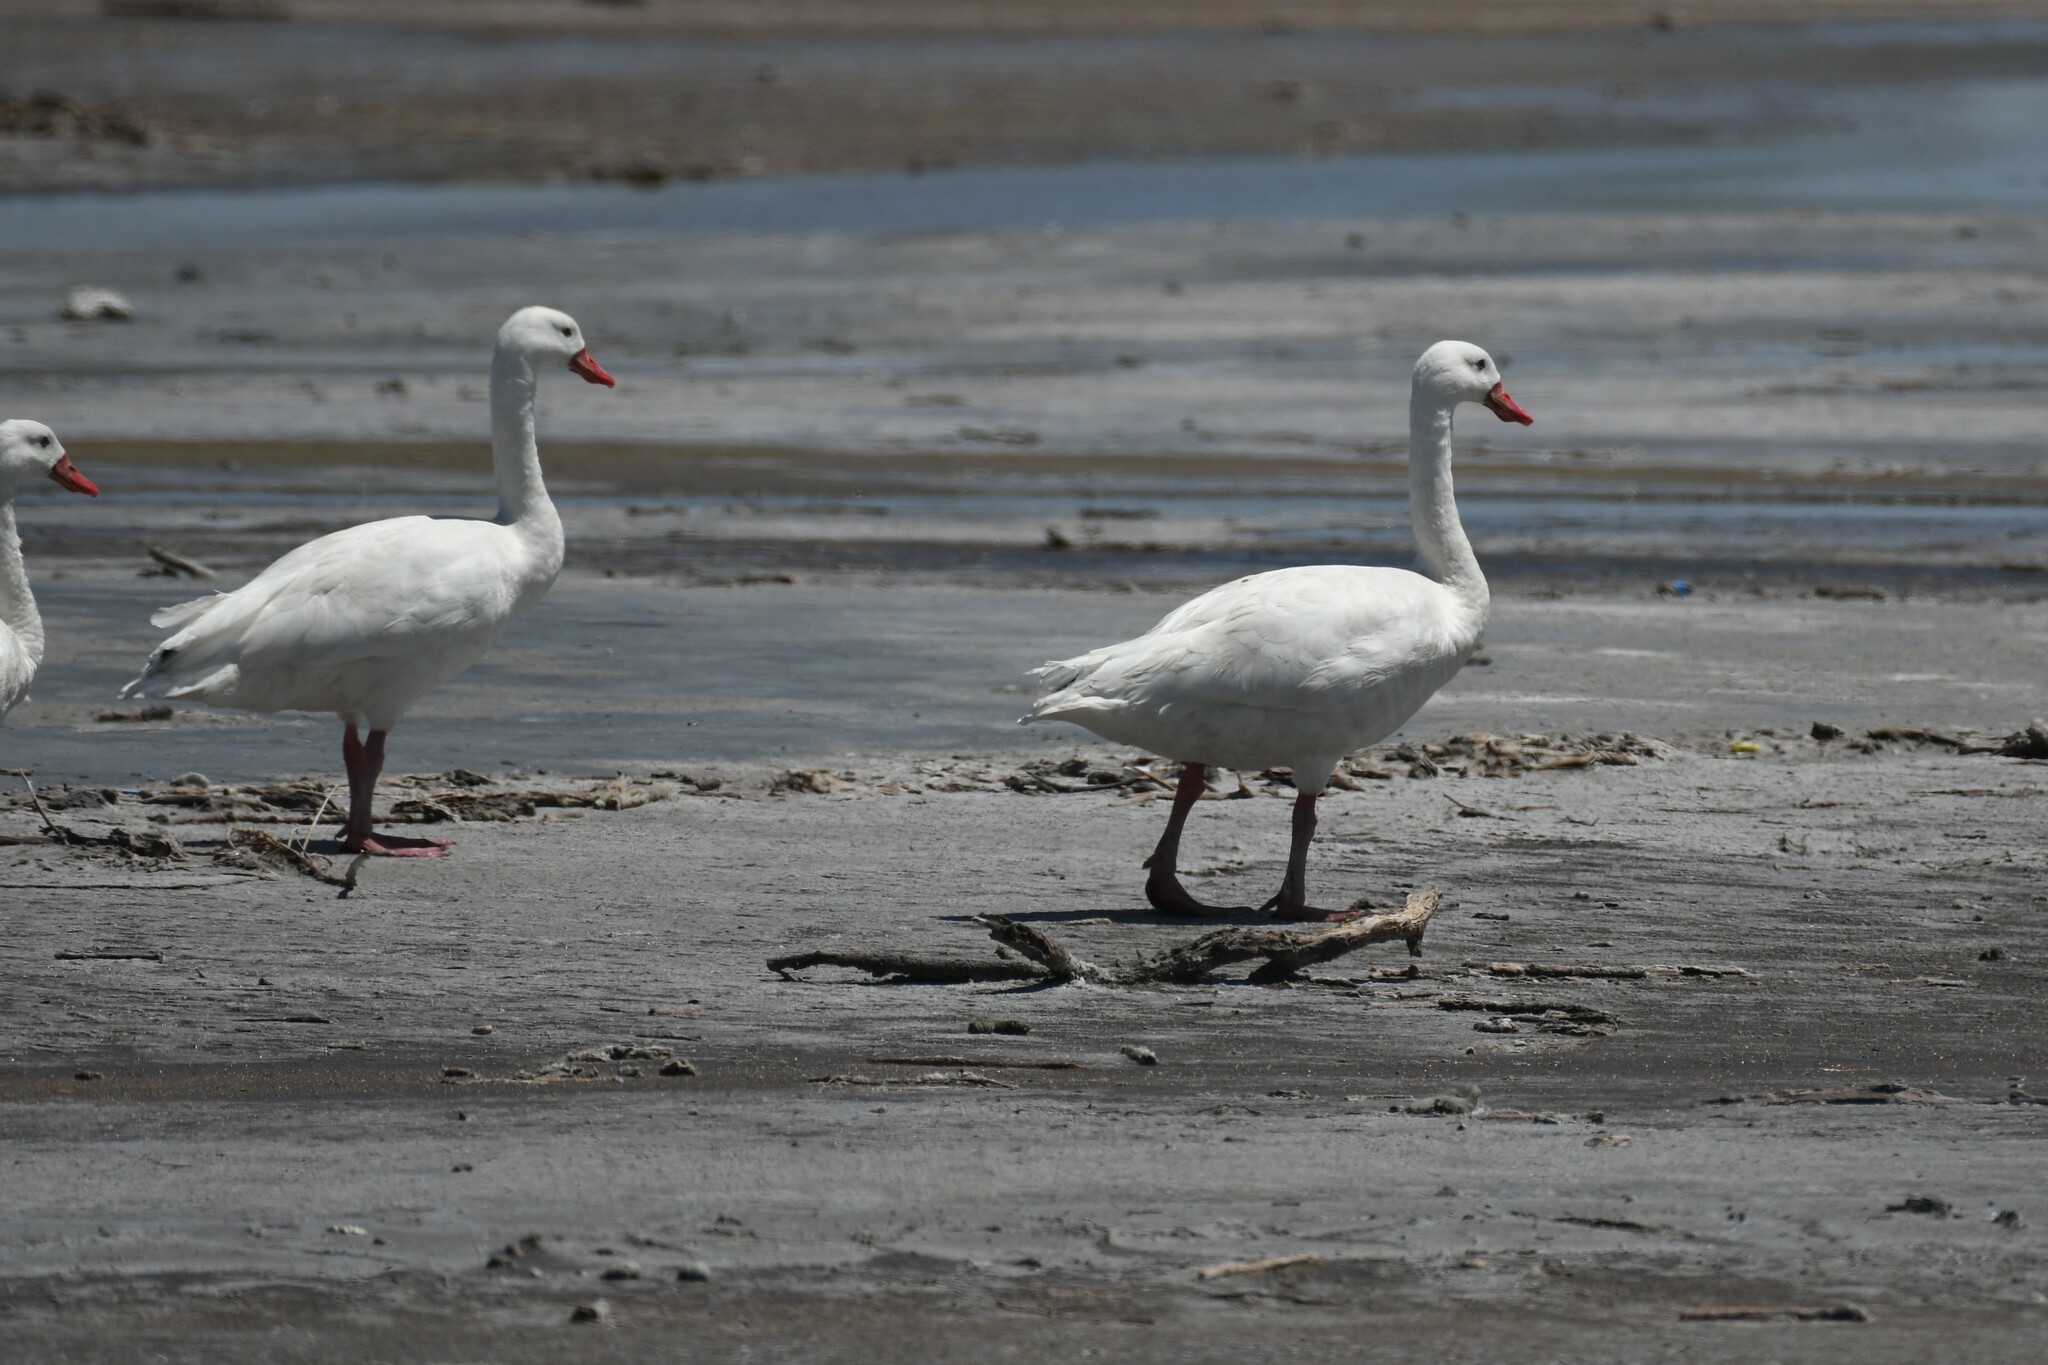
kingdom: Animalia
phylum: Chordata
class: Aves
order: Anseriformes
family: Anatidae
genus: Coscoroba
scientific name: Coscoroba coscoroba
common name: Coscoroba swan
